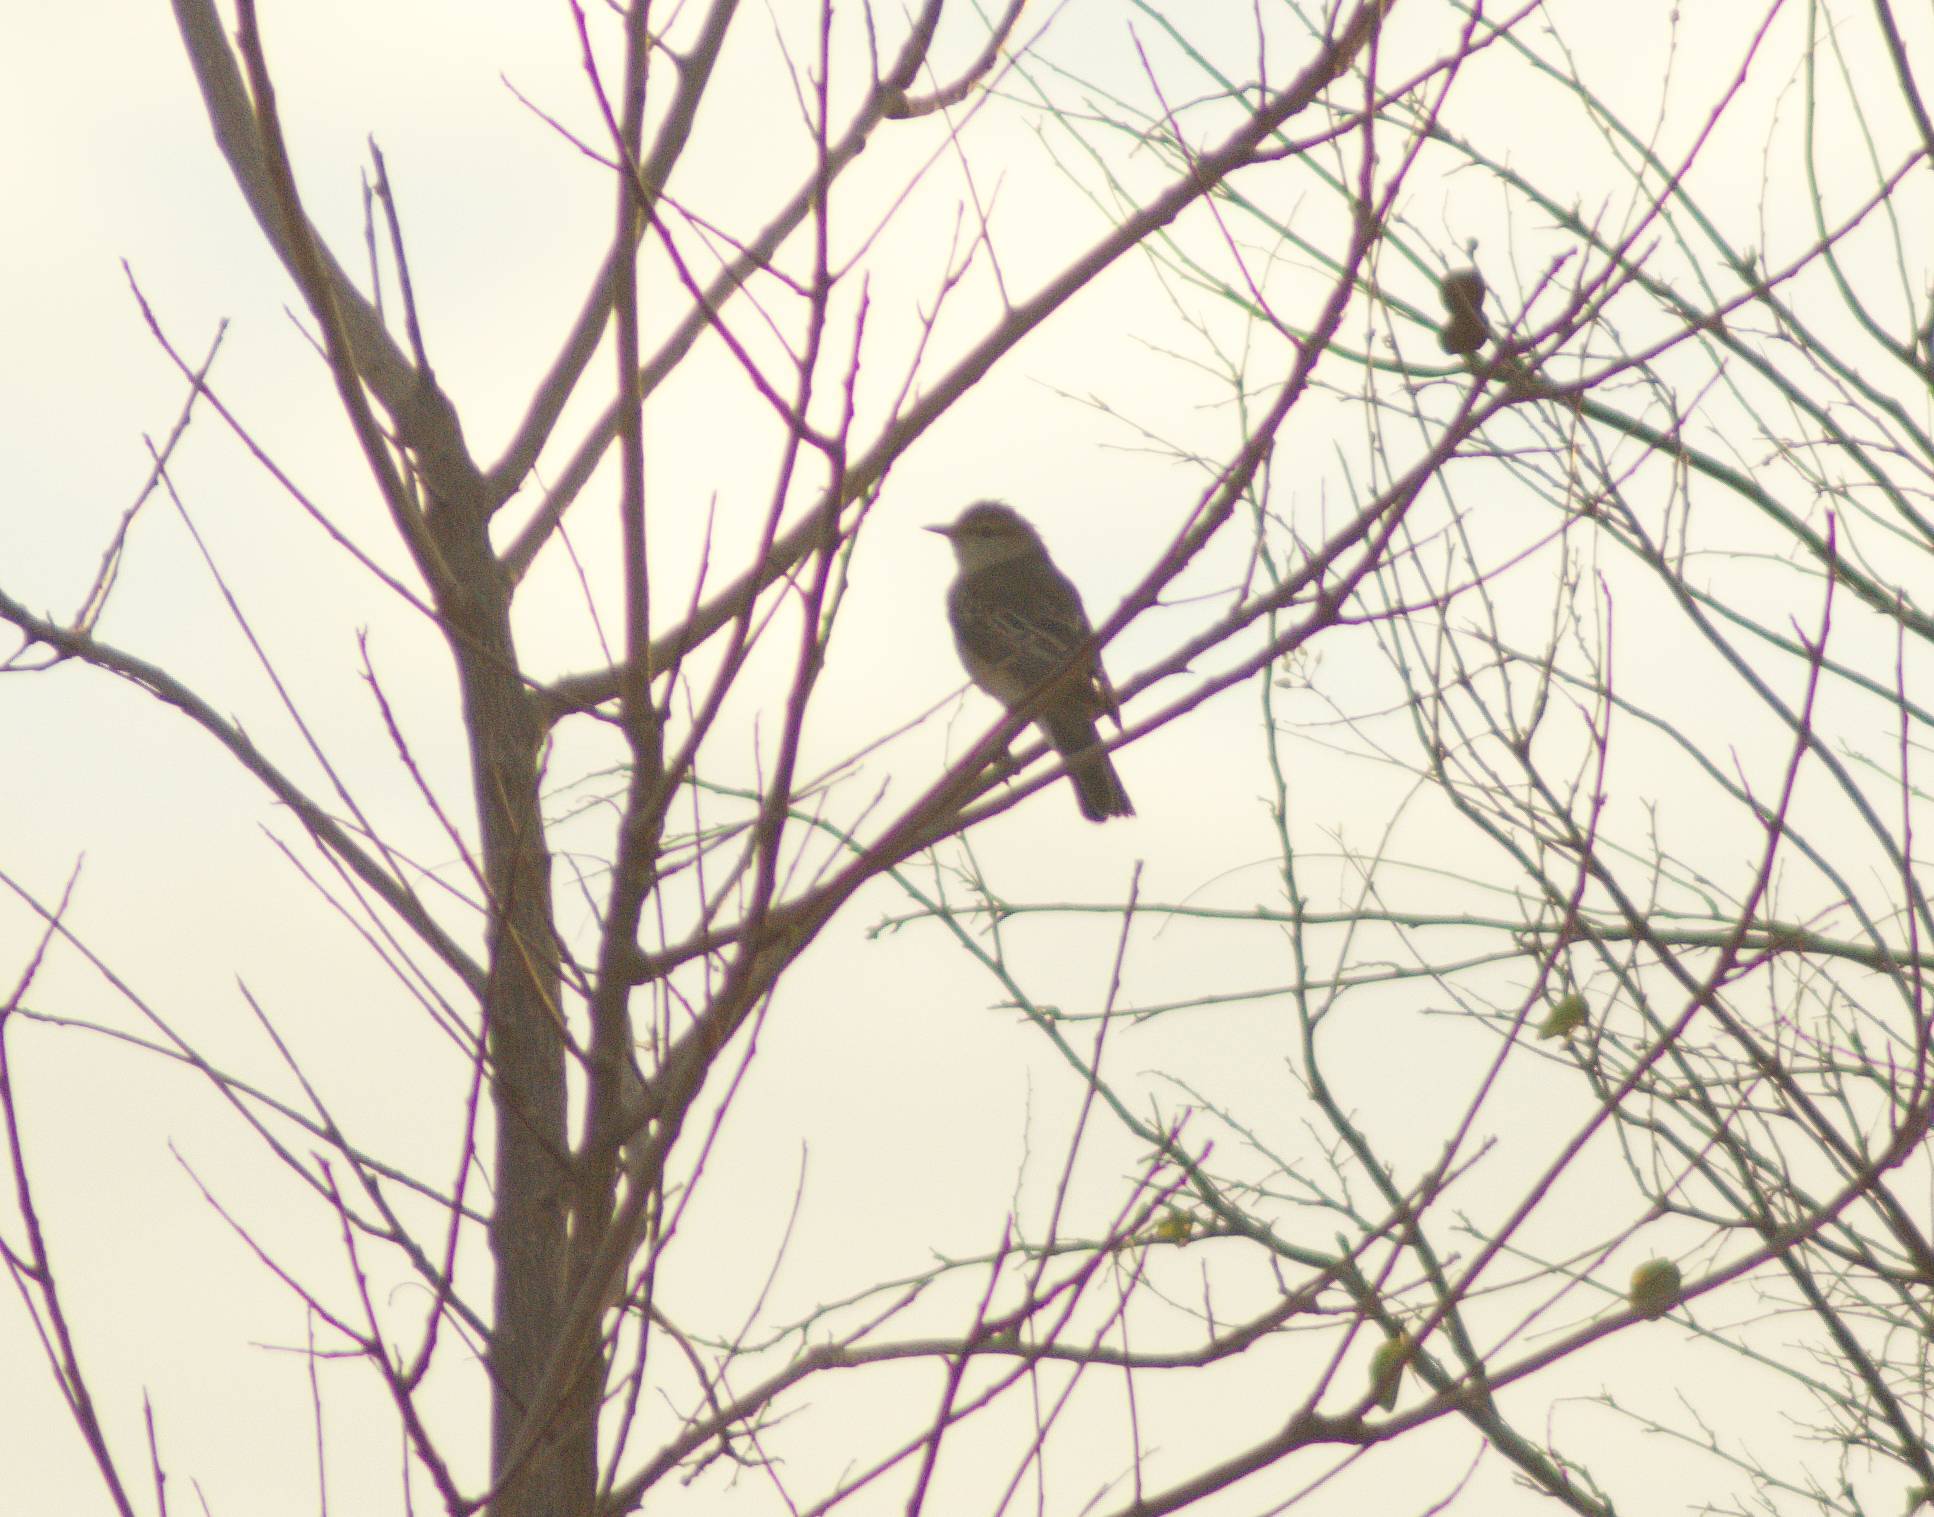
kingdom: Animalia
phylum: Chordata
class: Aves
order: Passeriformes
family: Campephagidae
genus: Lalage
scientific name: Lalage tricolor
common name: White-winged triller
